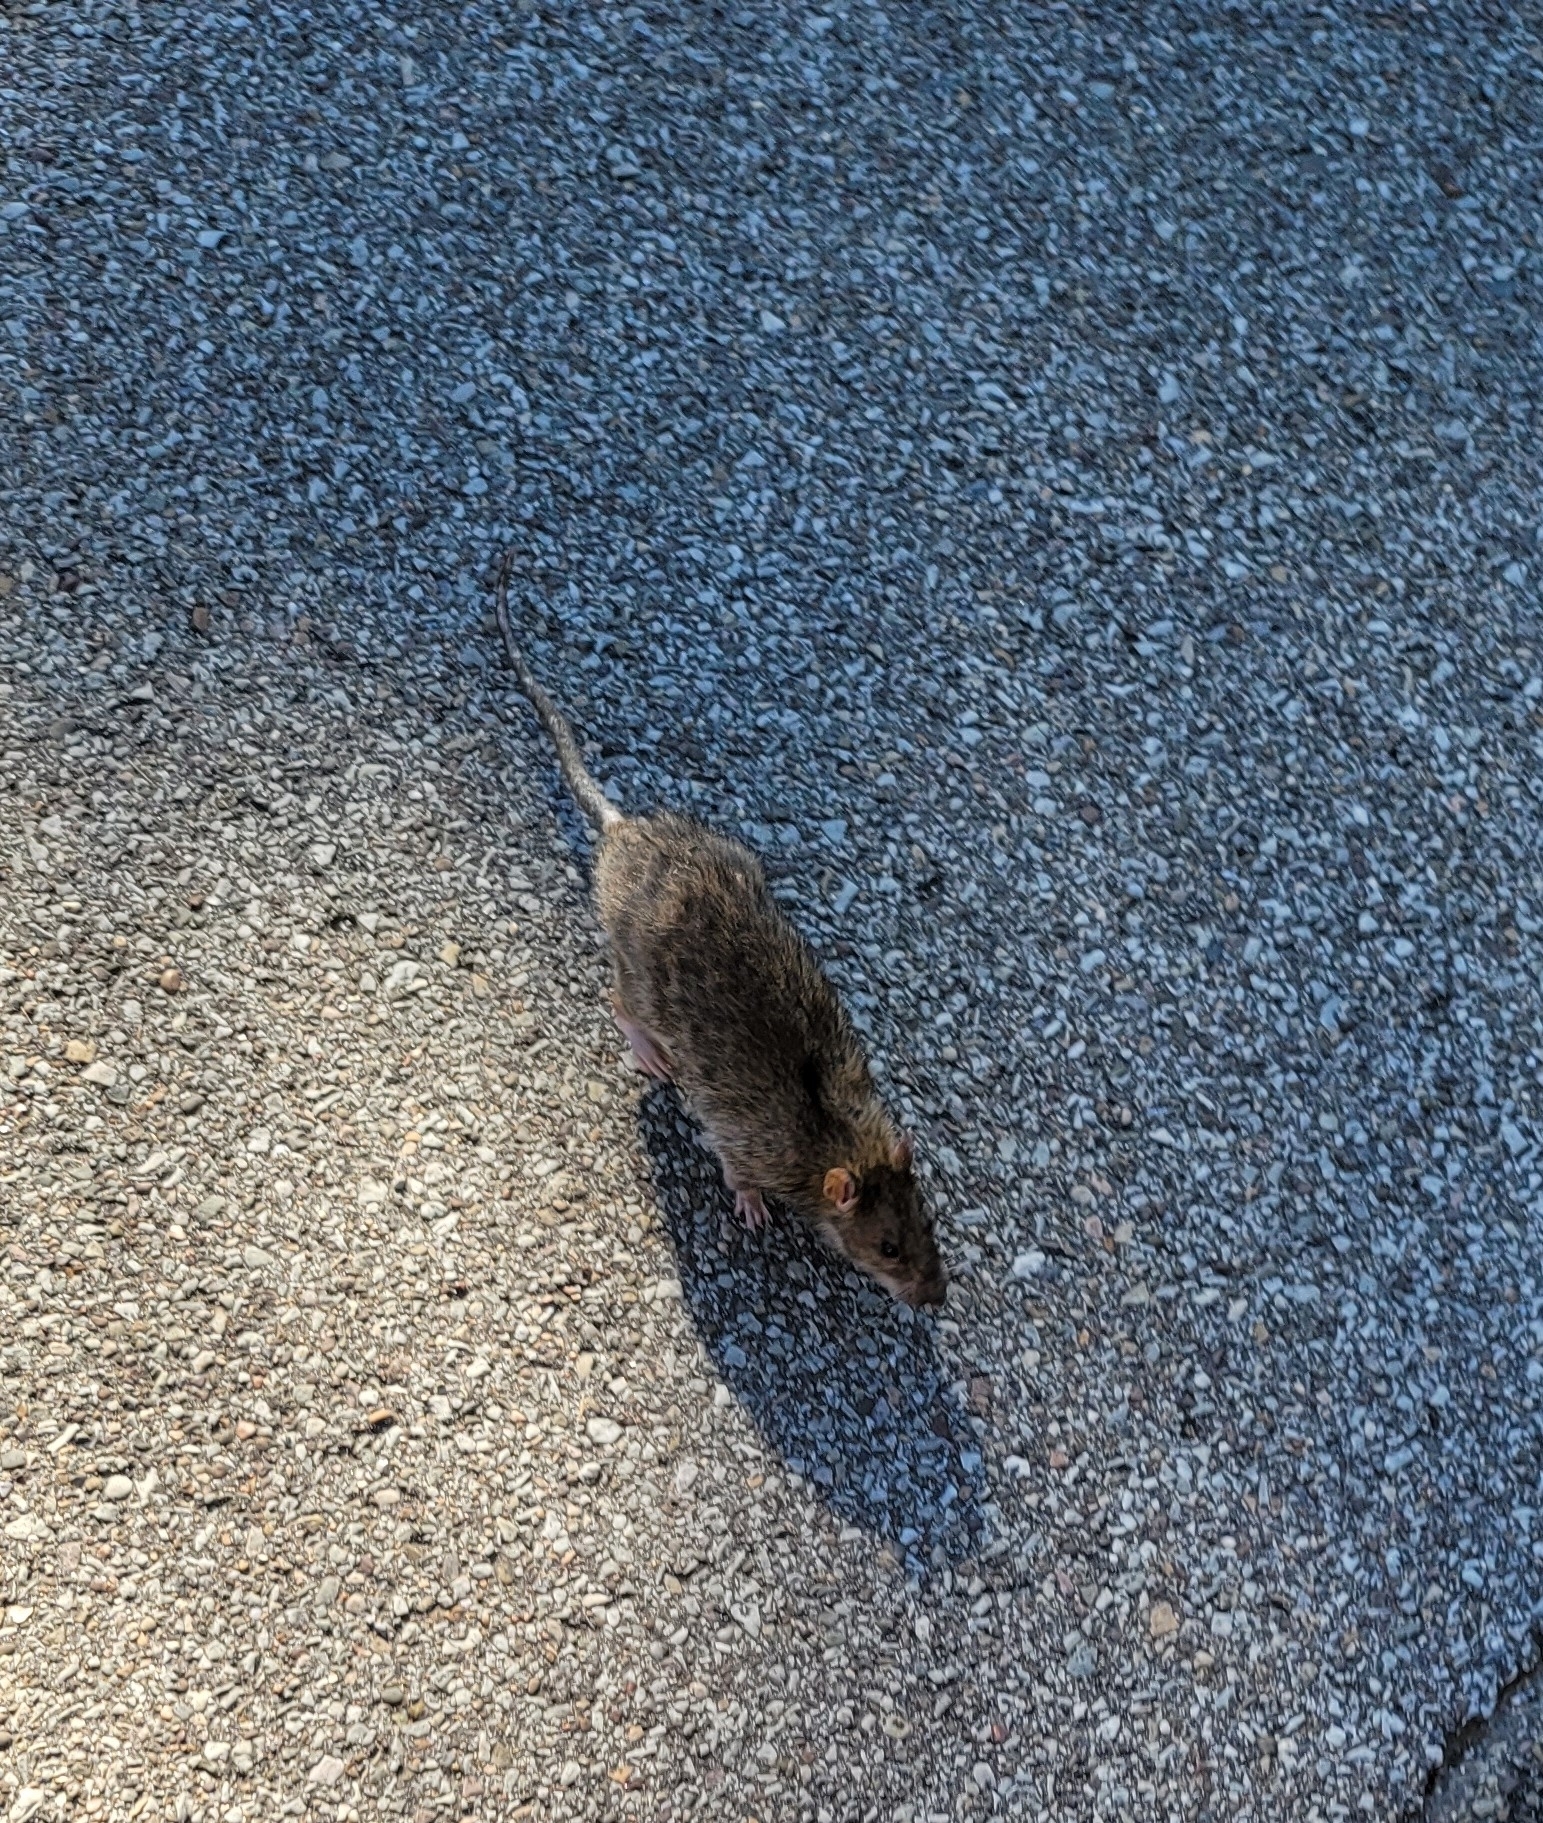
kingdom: Animalia
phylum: Chordata
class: Mammalia
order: Rodentia
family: Muridae
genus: Rattus
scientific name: Rattus norvegicus
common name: Brown rat
